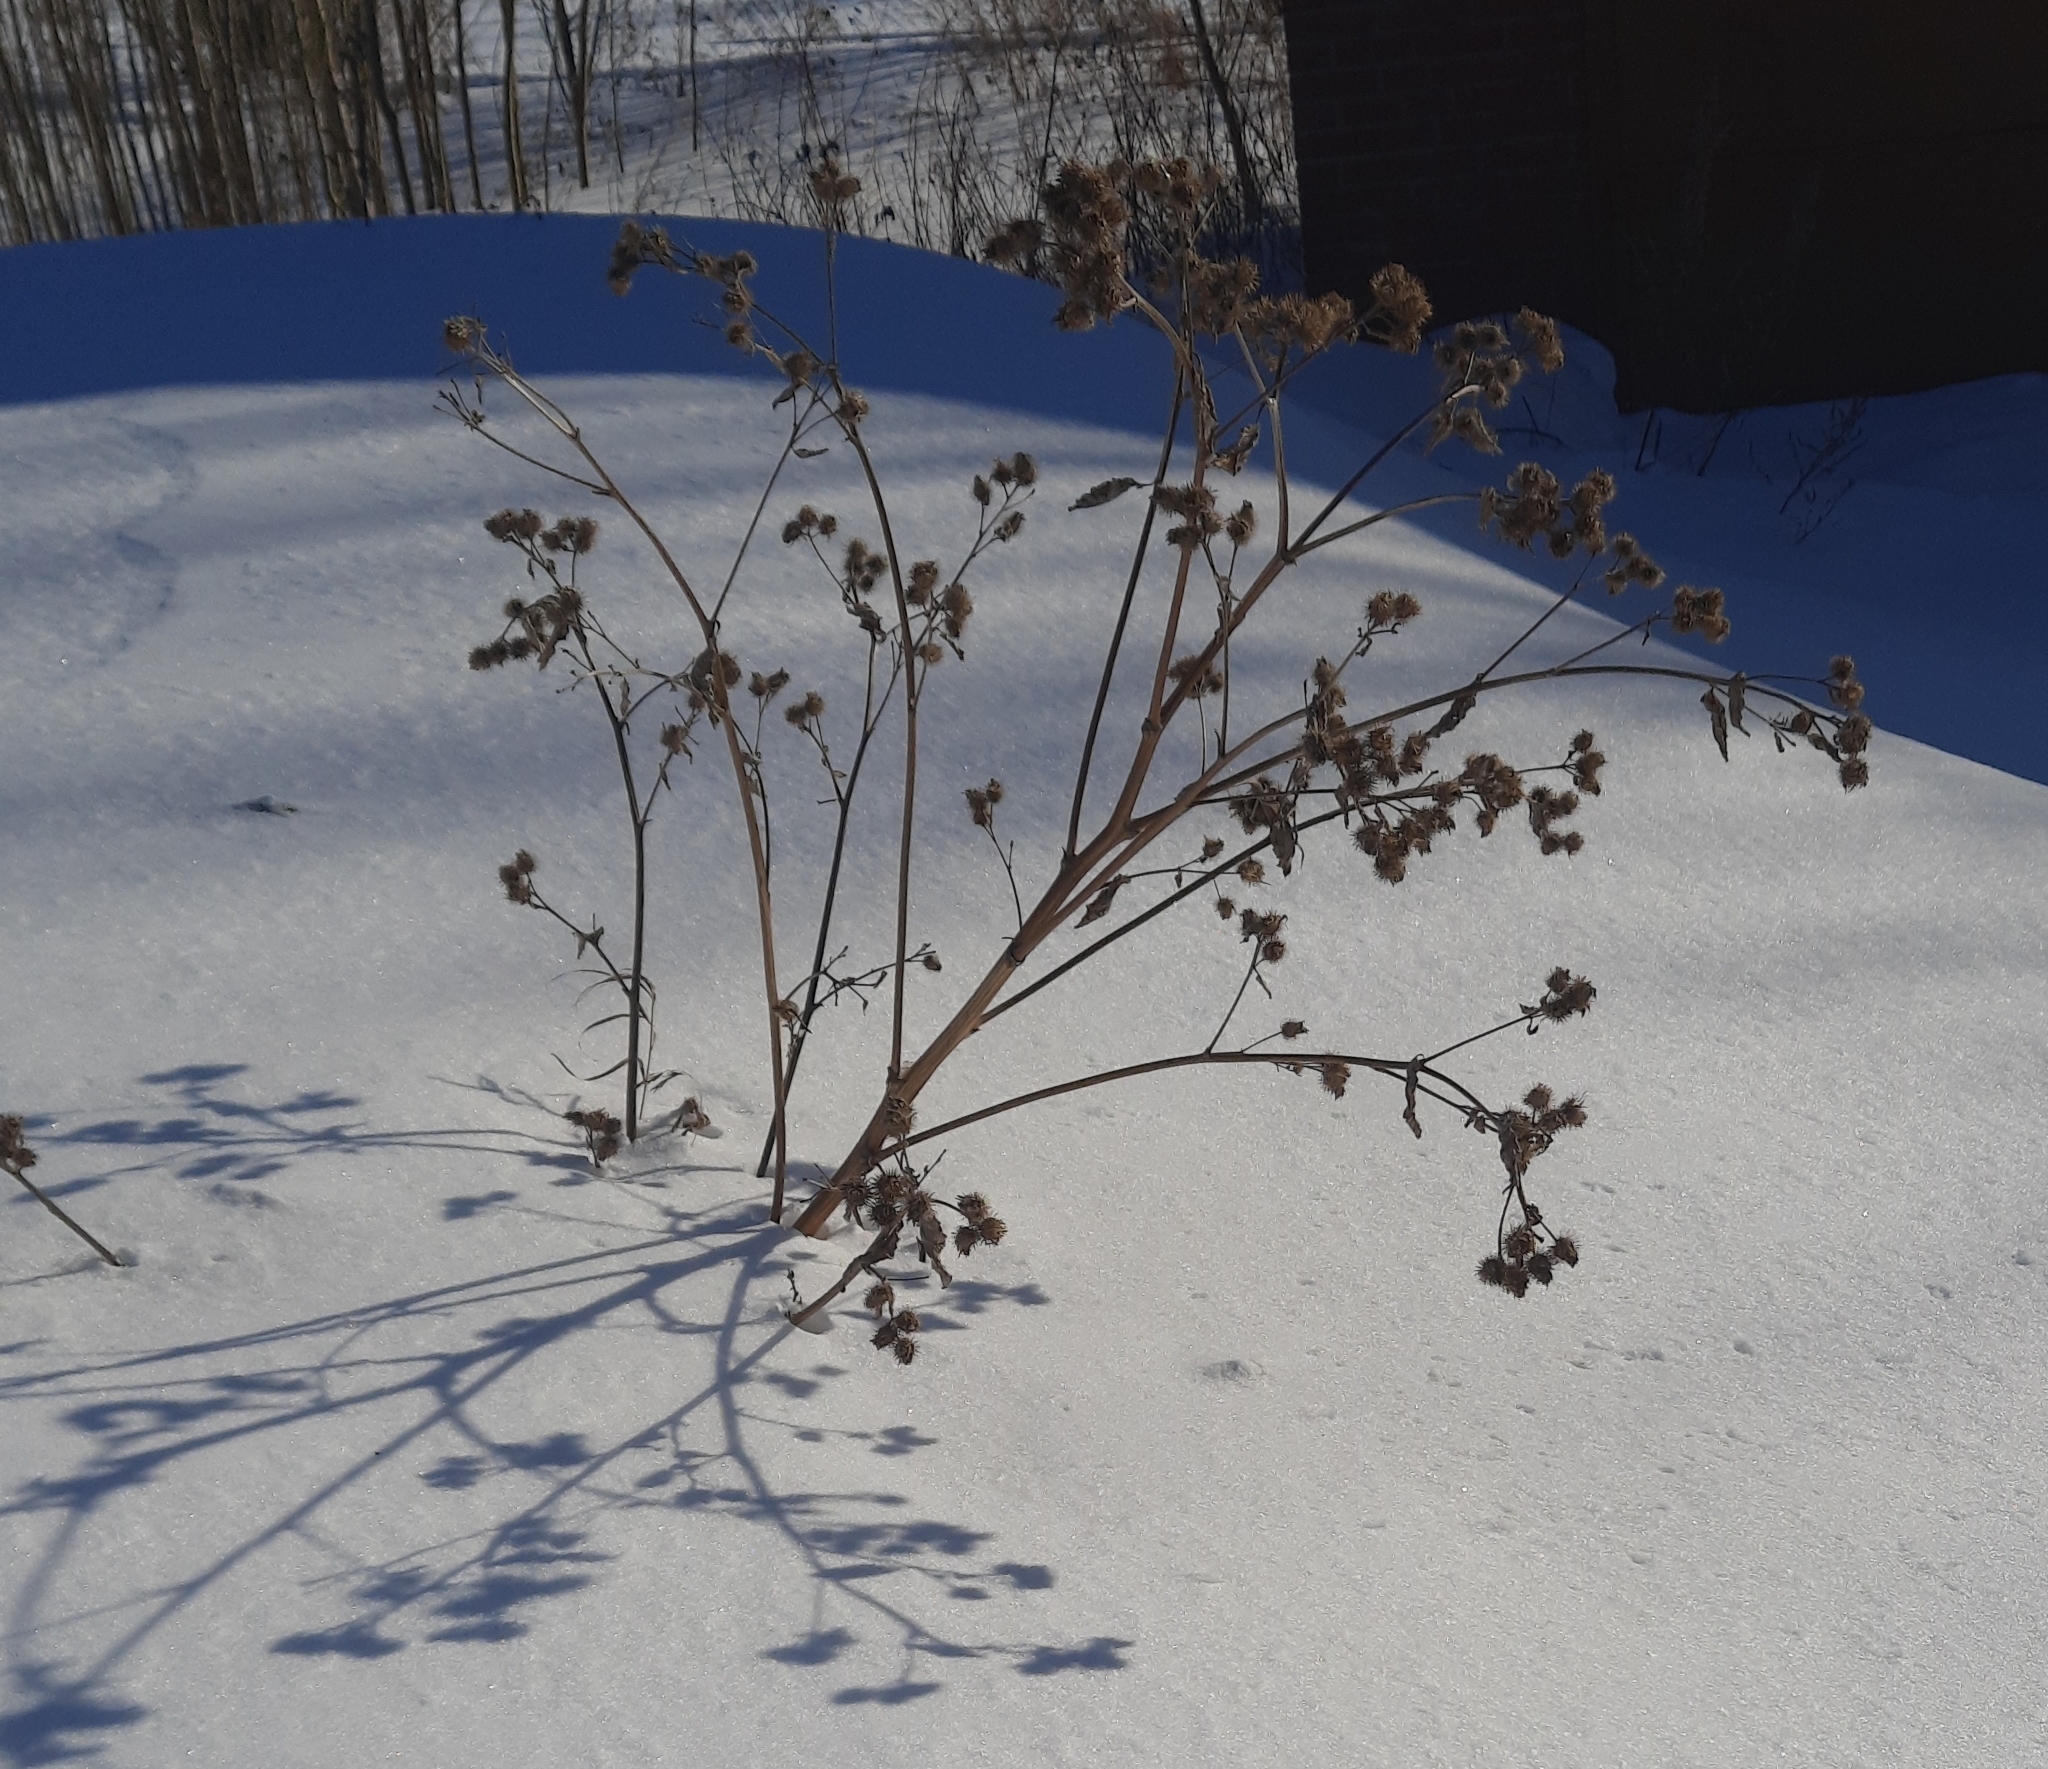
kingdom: Plantae
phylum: Tracheophyta
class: Magnoliopsida
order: Asterales
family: Asteraceae
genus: Arctium
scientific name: Arctium tomentosum
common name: Woolly burdock
